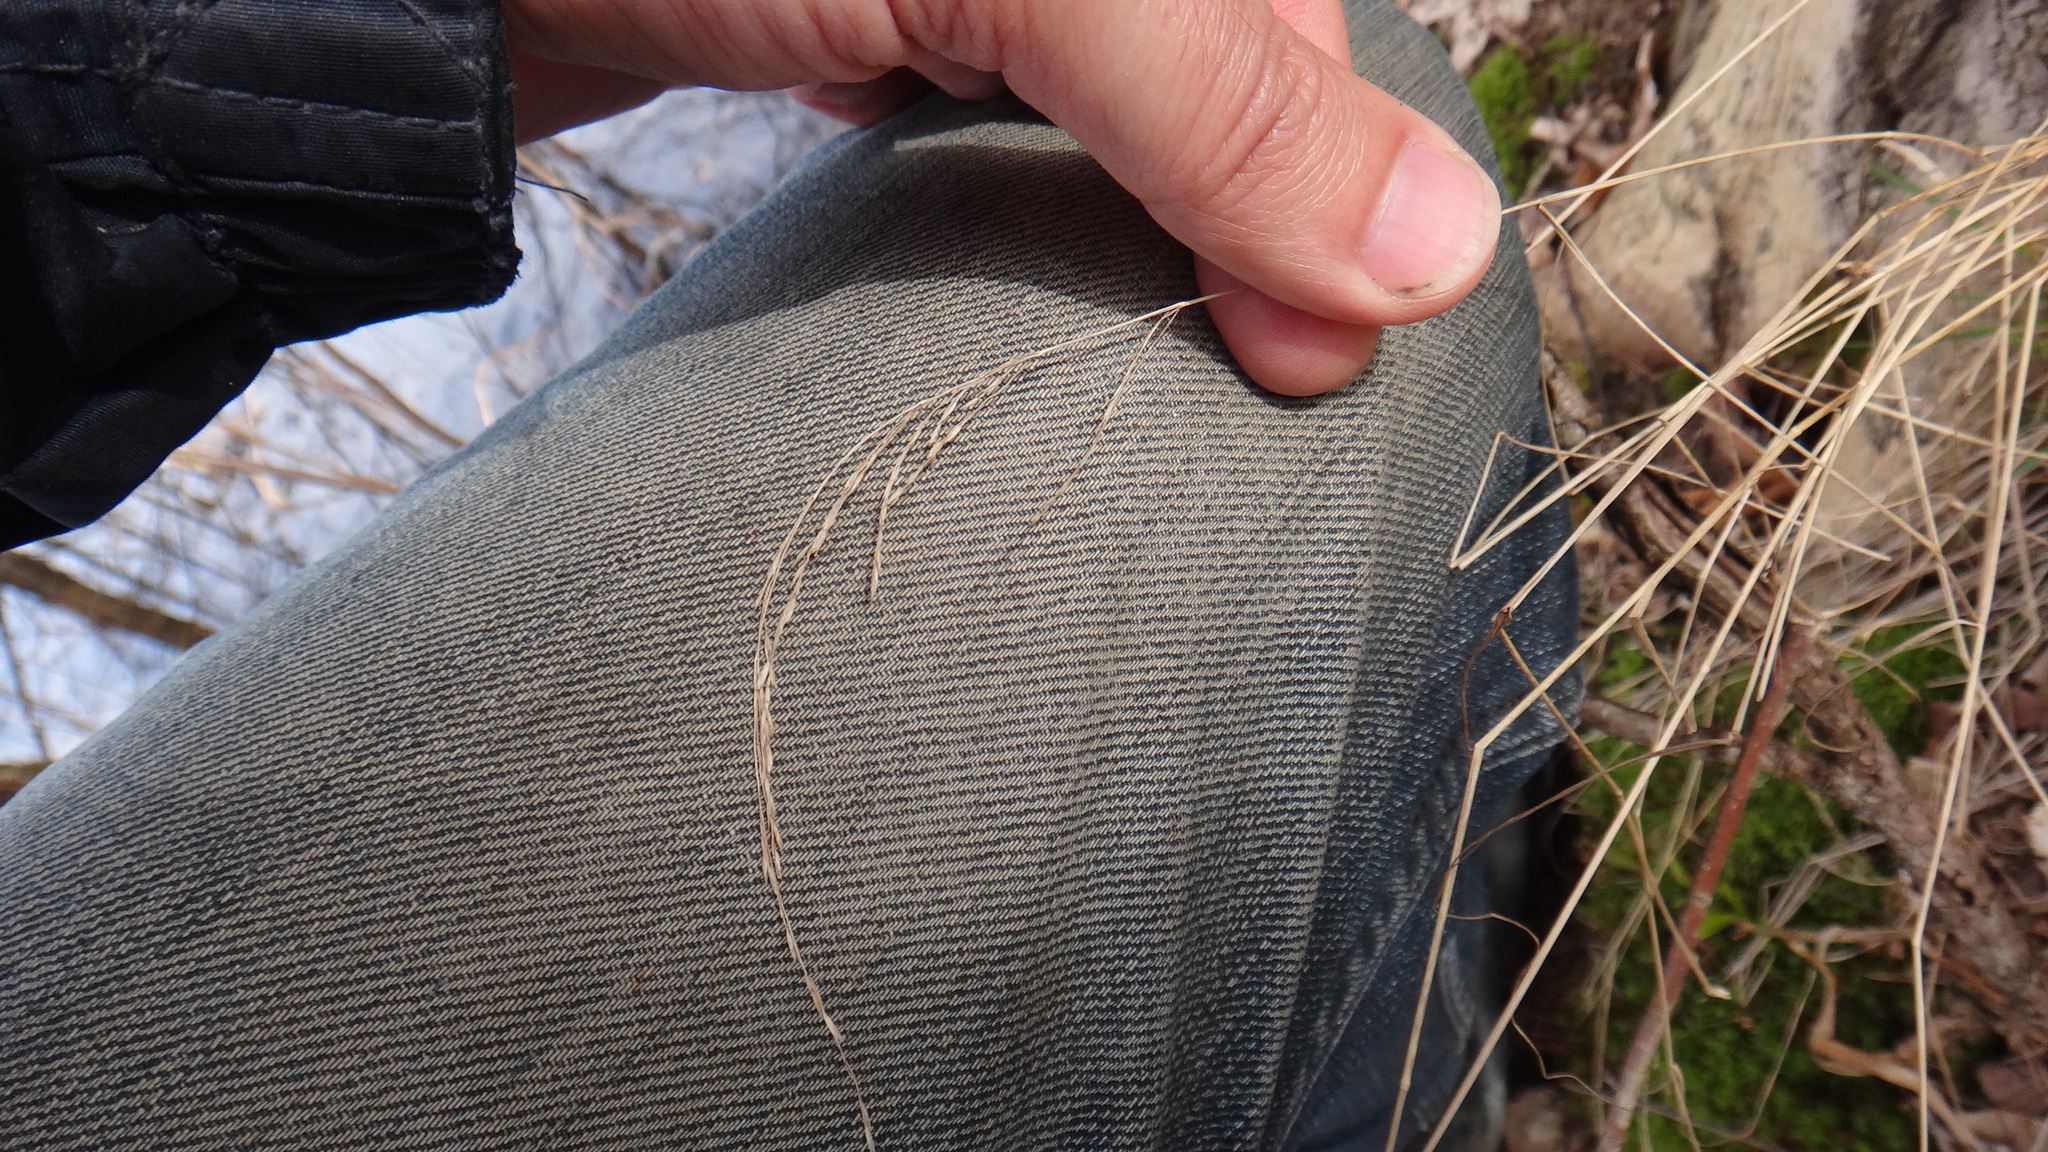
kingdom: Plantae
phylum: Tracheophyta
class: Liliopsida
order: Poales
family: Poaceae
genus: Poa
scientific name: Poa nemoralis
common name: Wood bluegrass
